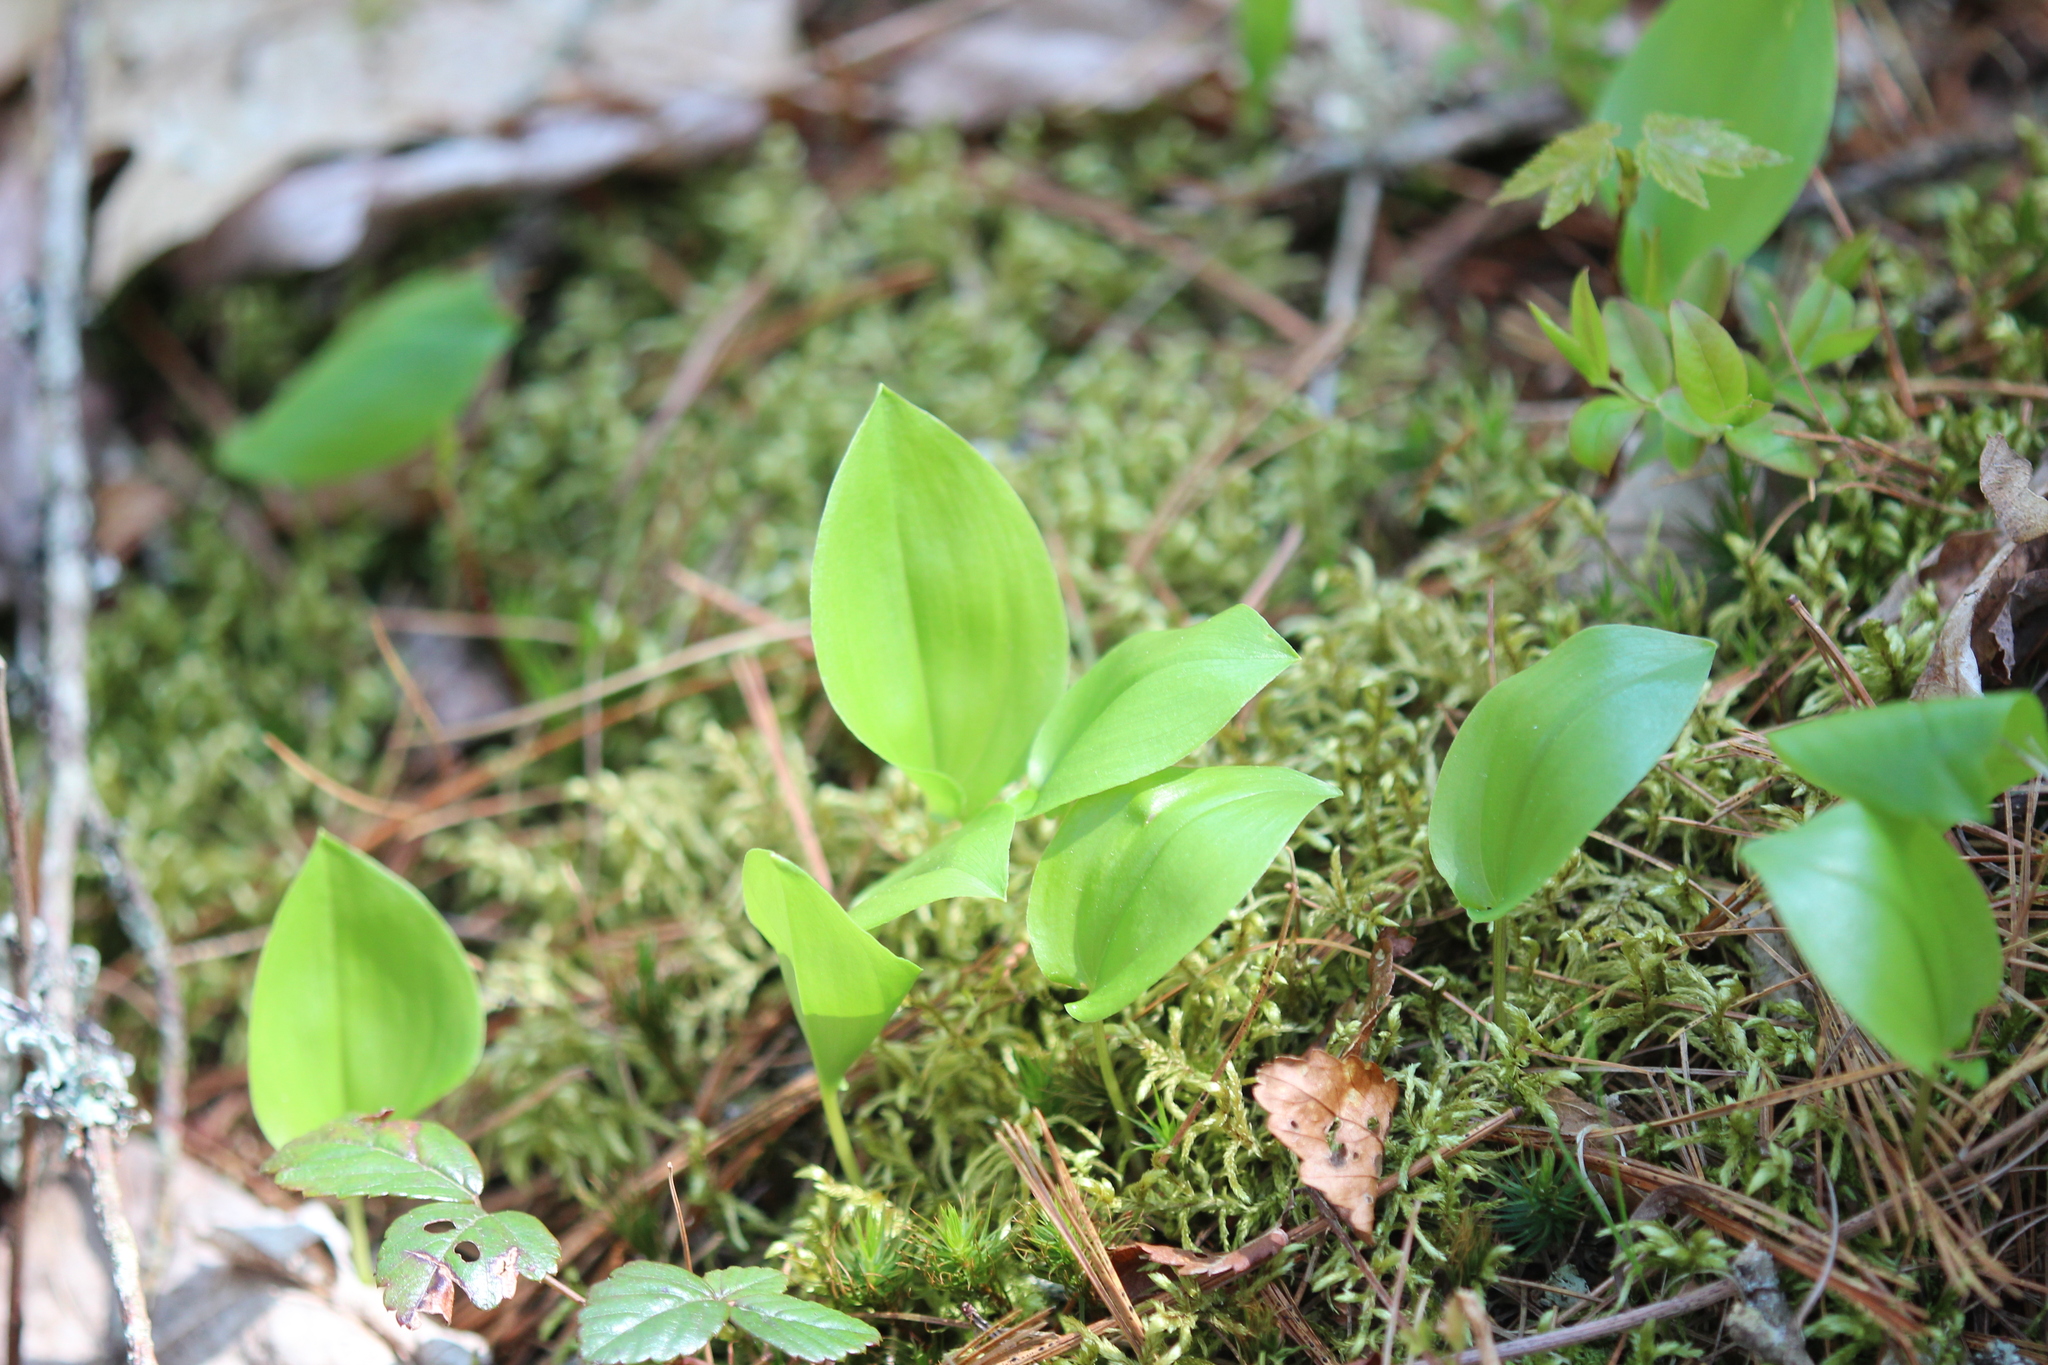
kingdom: Plantae
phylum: Tracheophyta
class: Liliopsida
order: Asparagales
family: Asparagaceae
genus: Maianthemum
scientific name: Maianthemum canadense
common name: False lily-of-the-valley
